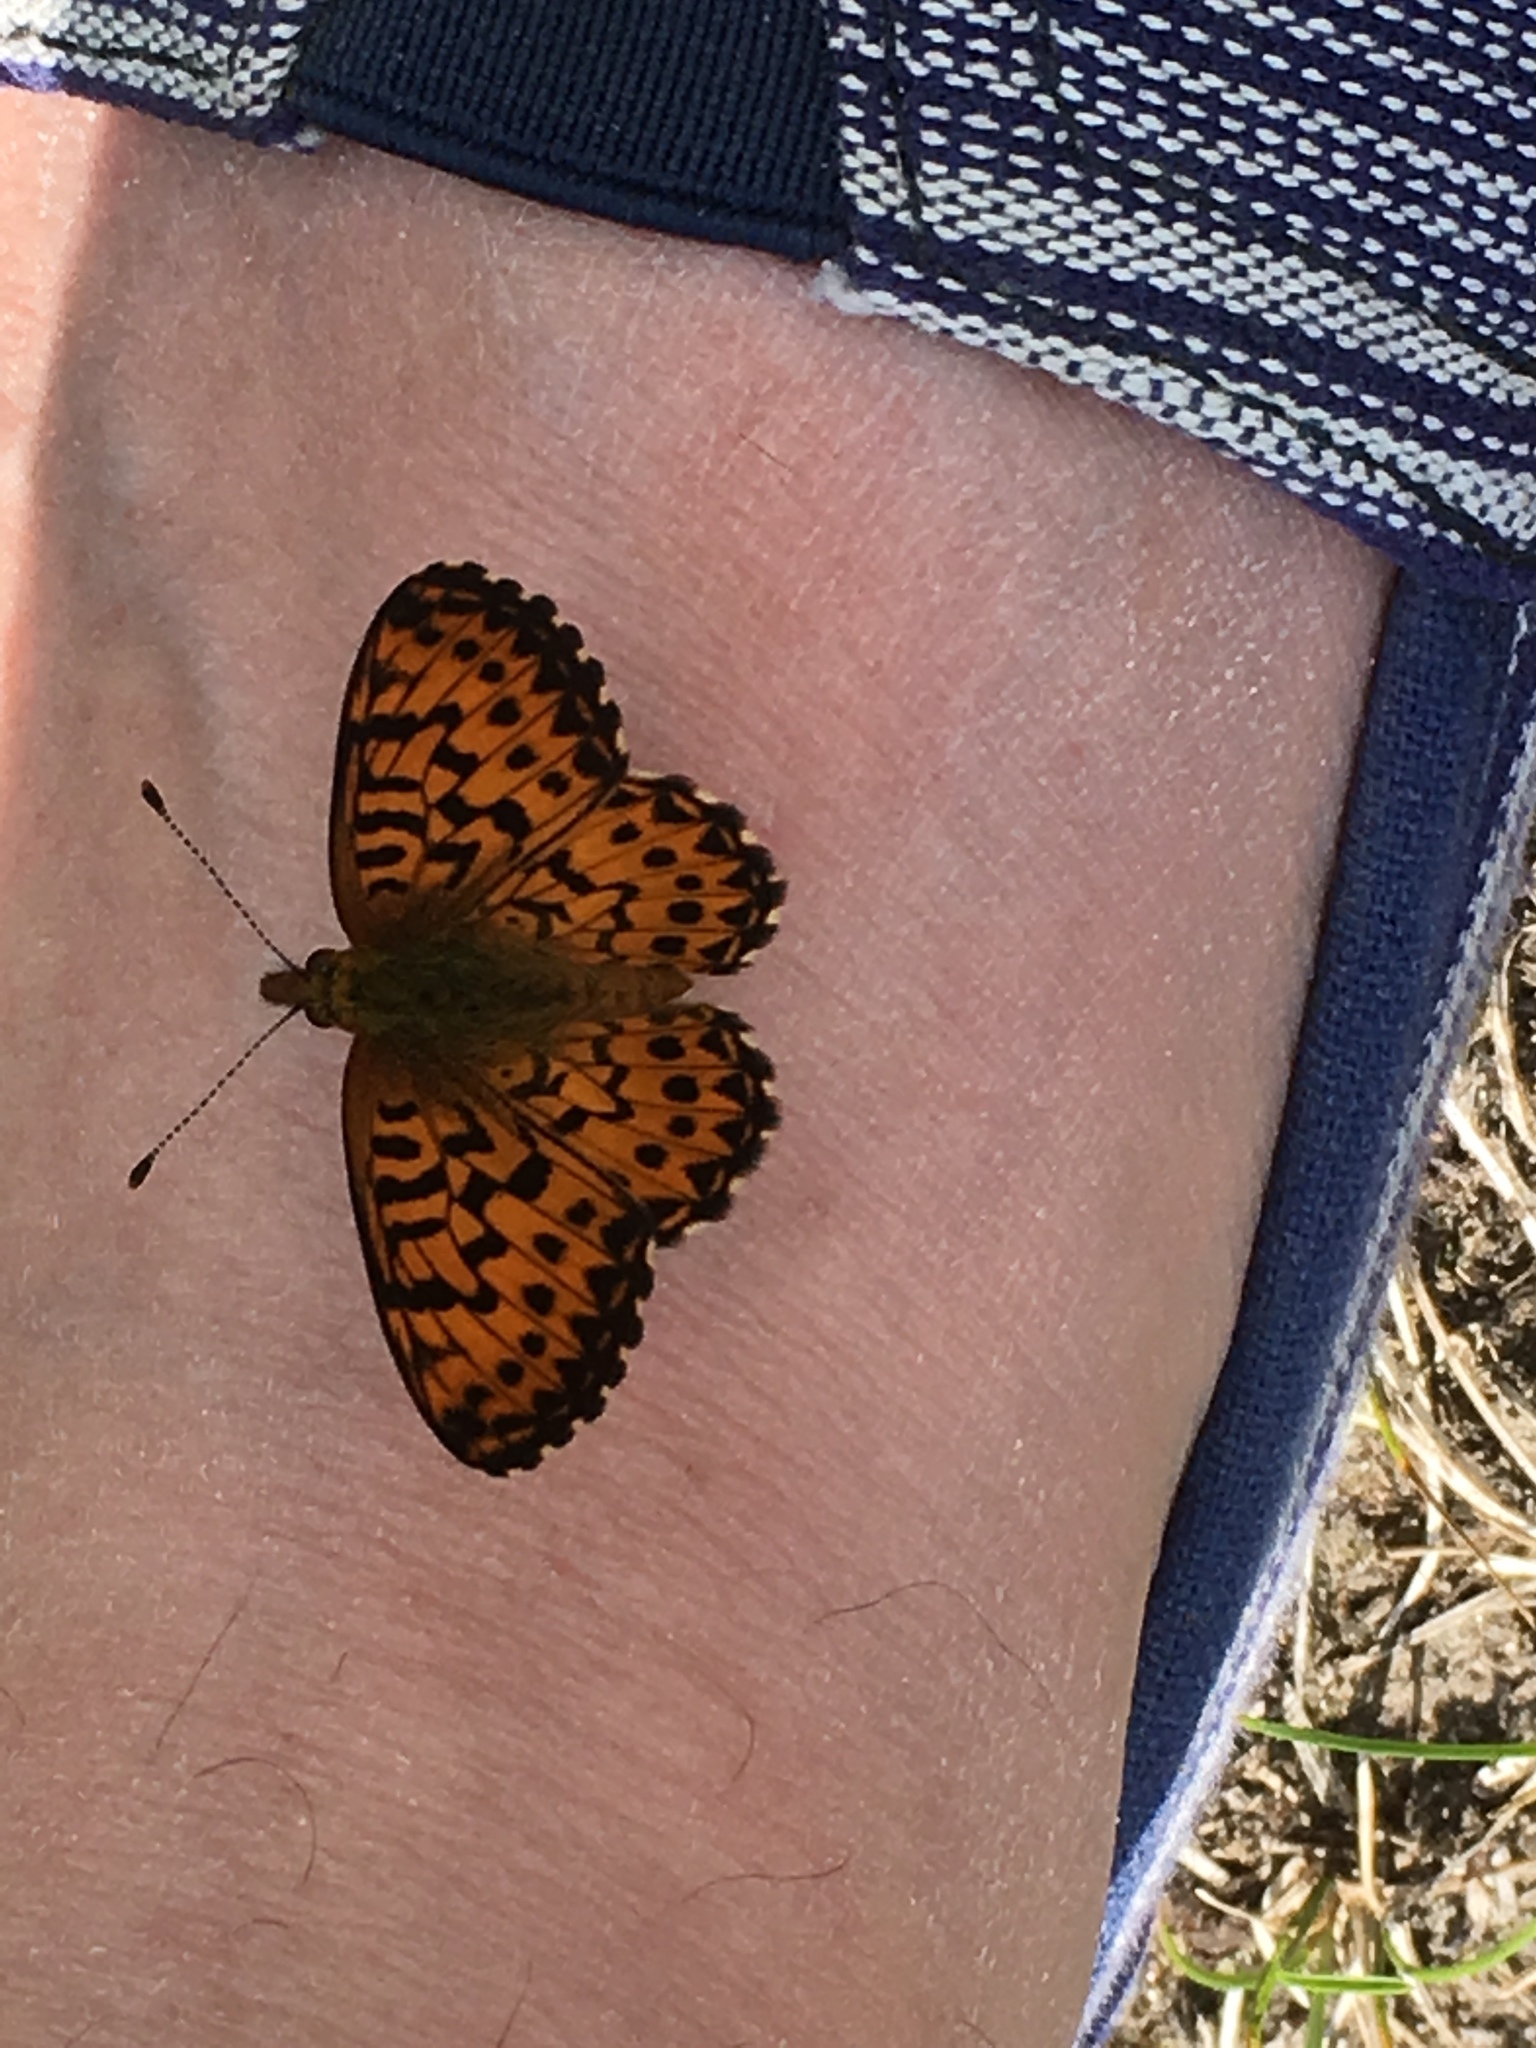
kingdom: Animalia
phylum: Arthropoda
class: Insecta
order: Lepidoptera
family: Nymphalidae
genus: Boloria
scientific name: Boloria chariclea
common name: Arctic fritillary
